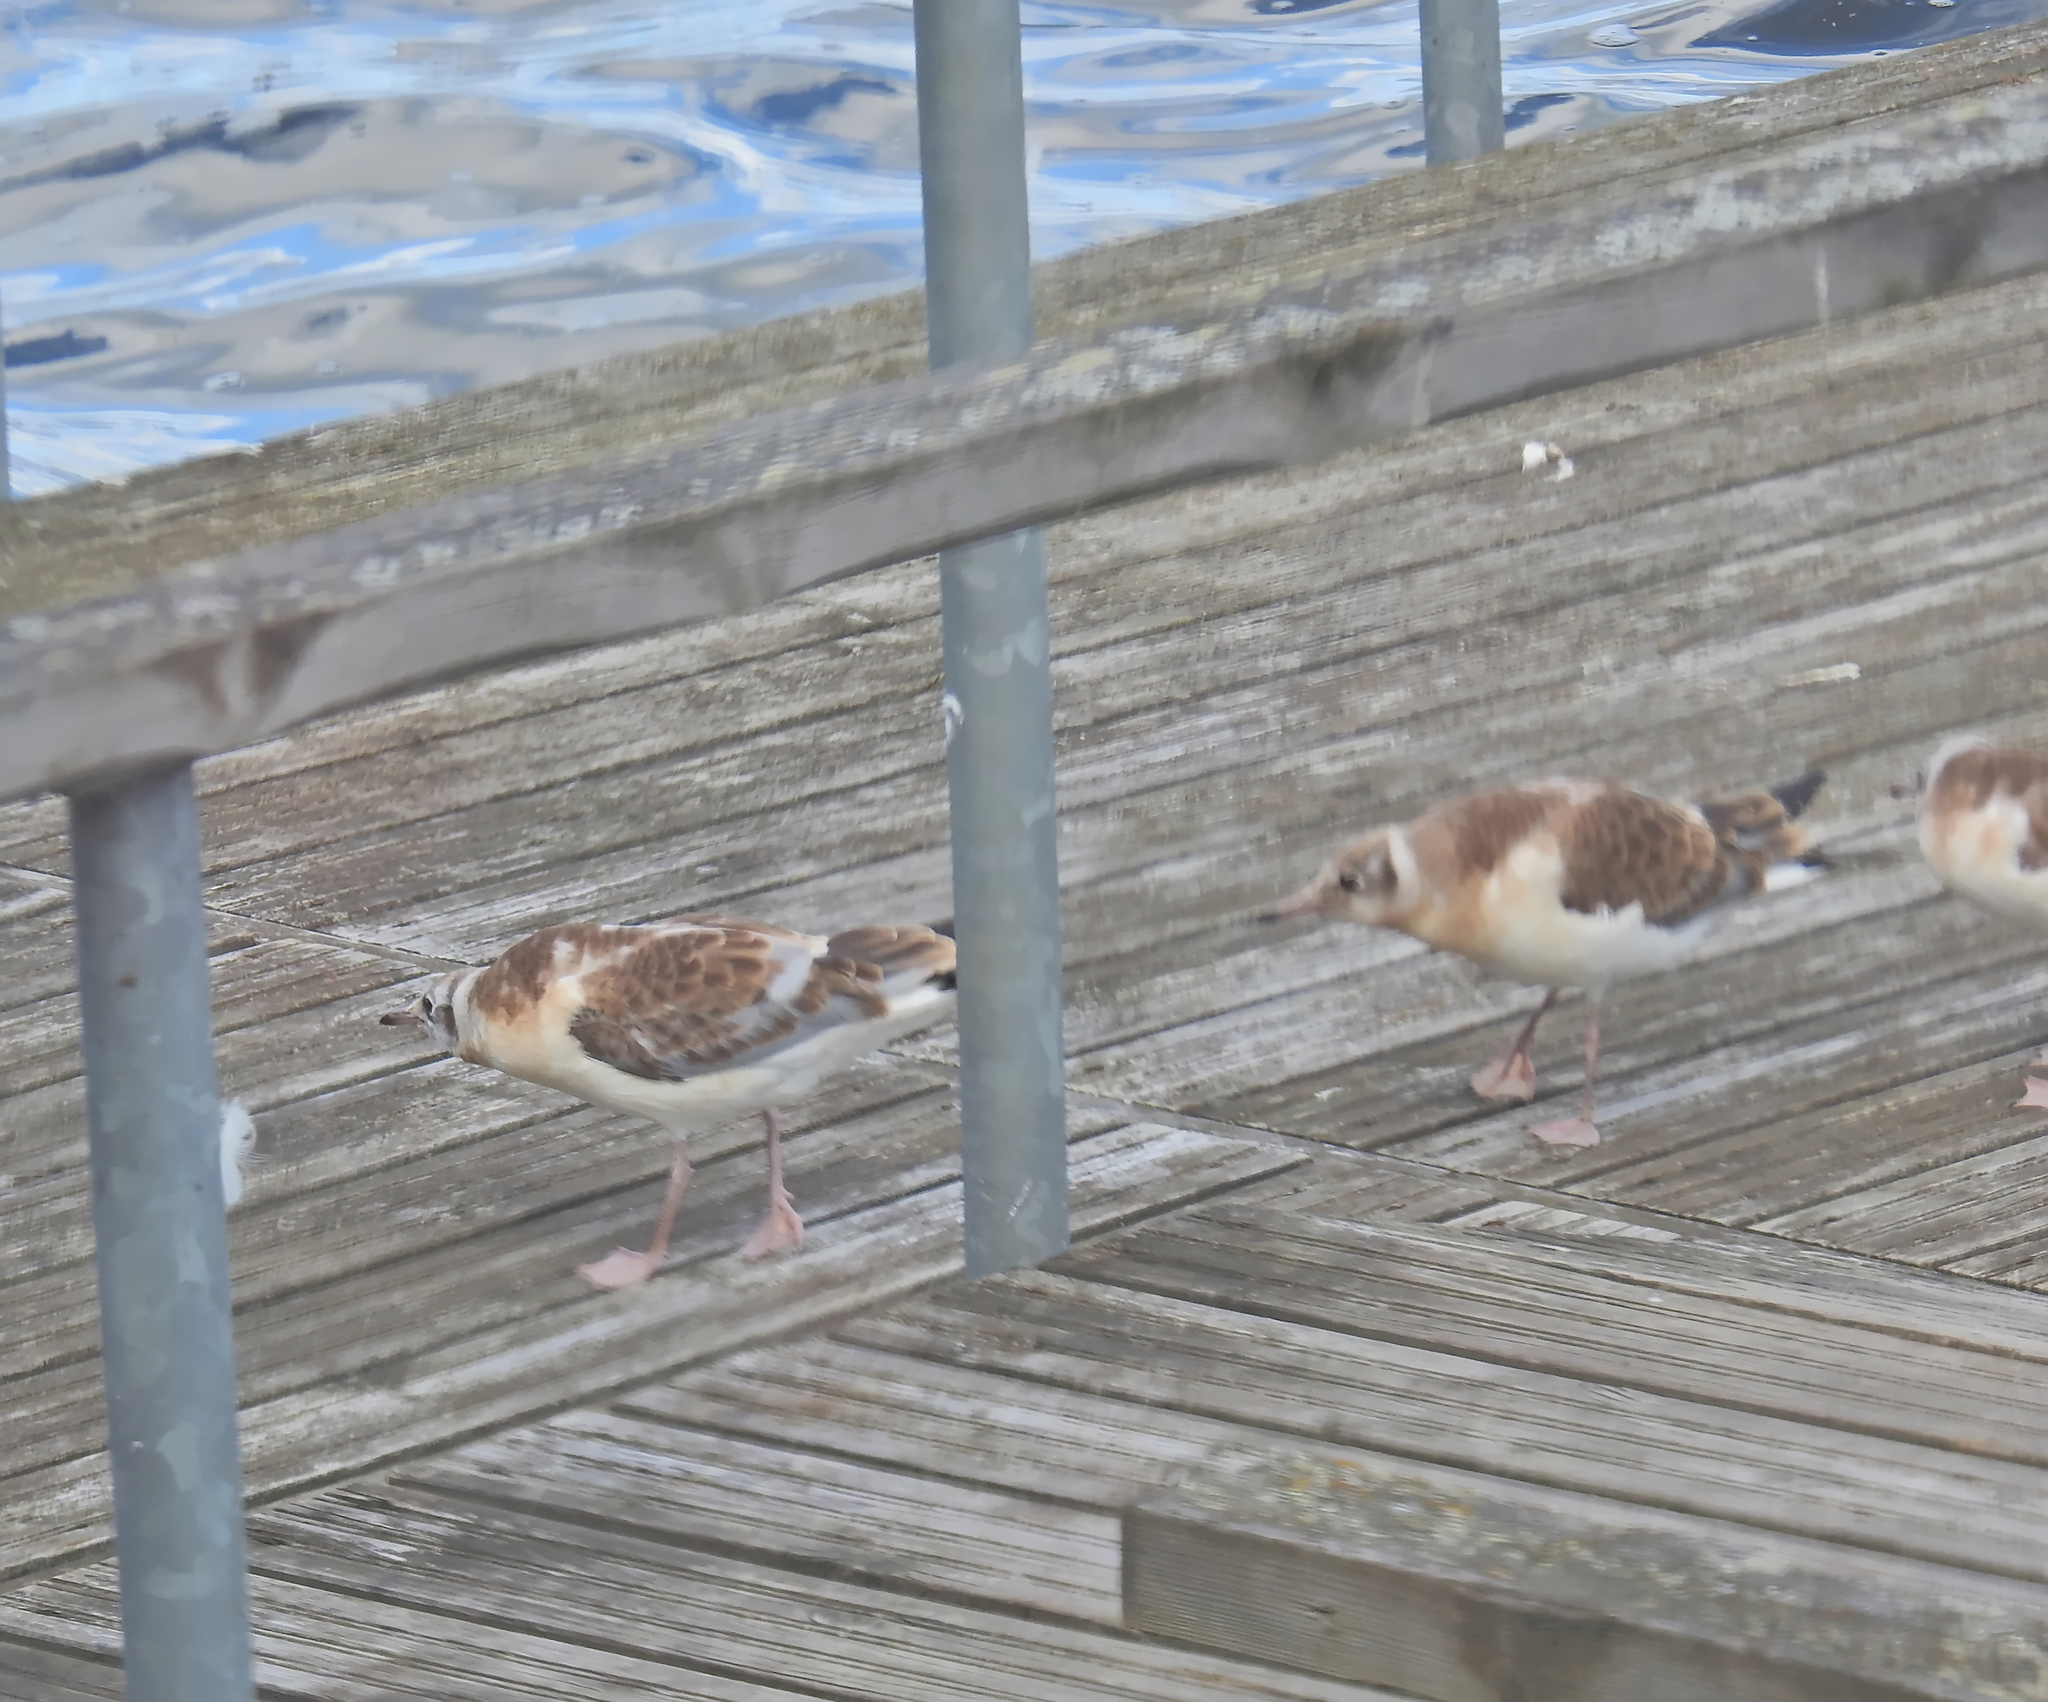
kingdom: Animalia
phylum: Chordata
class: Aves
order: Charadriiformes
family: Laridae
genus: Chroicocephalus
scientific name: Chroicocephalus ridibundus
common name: Black-headed gull
